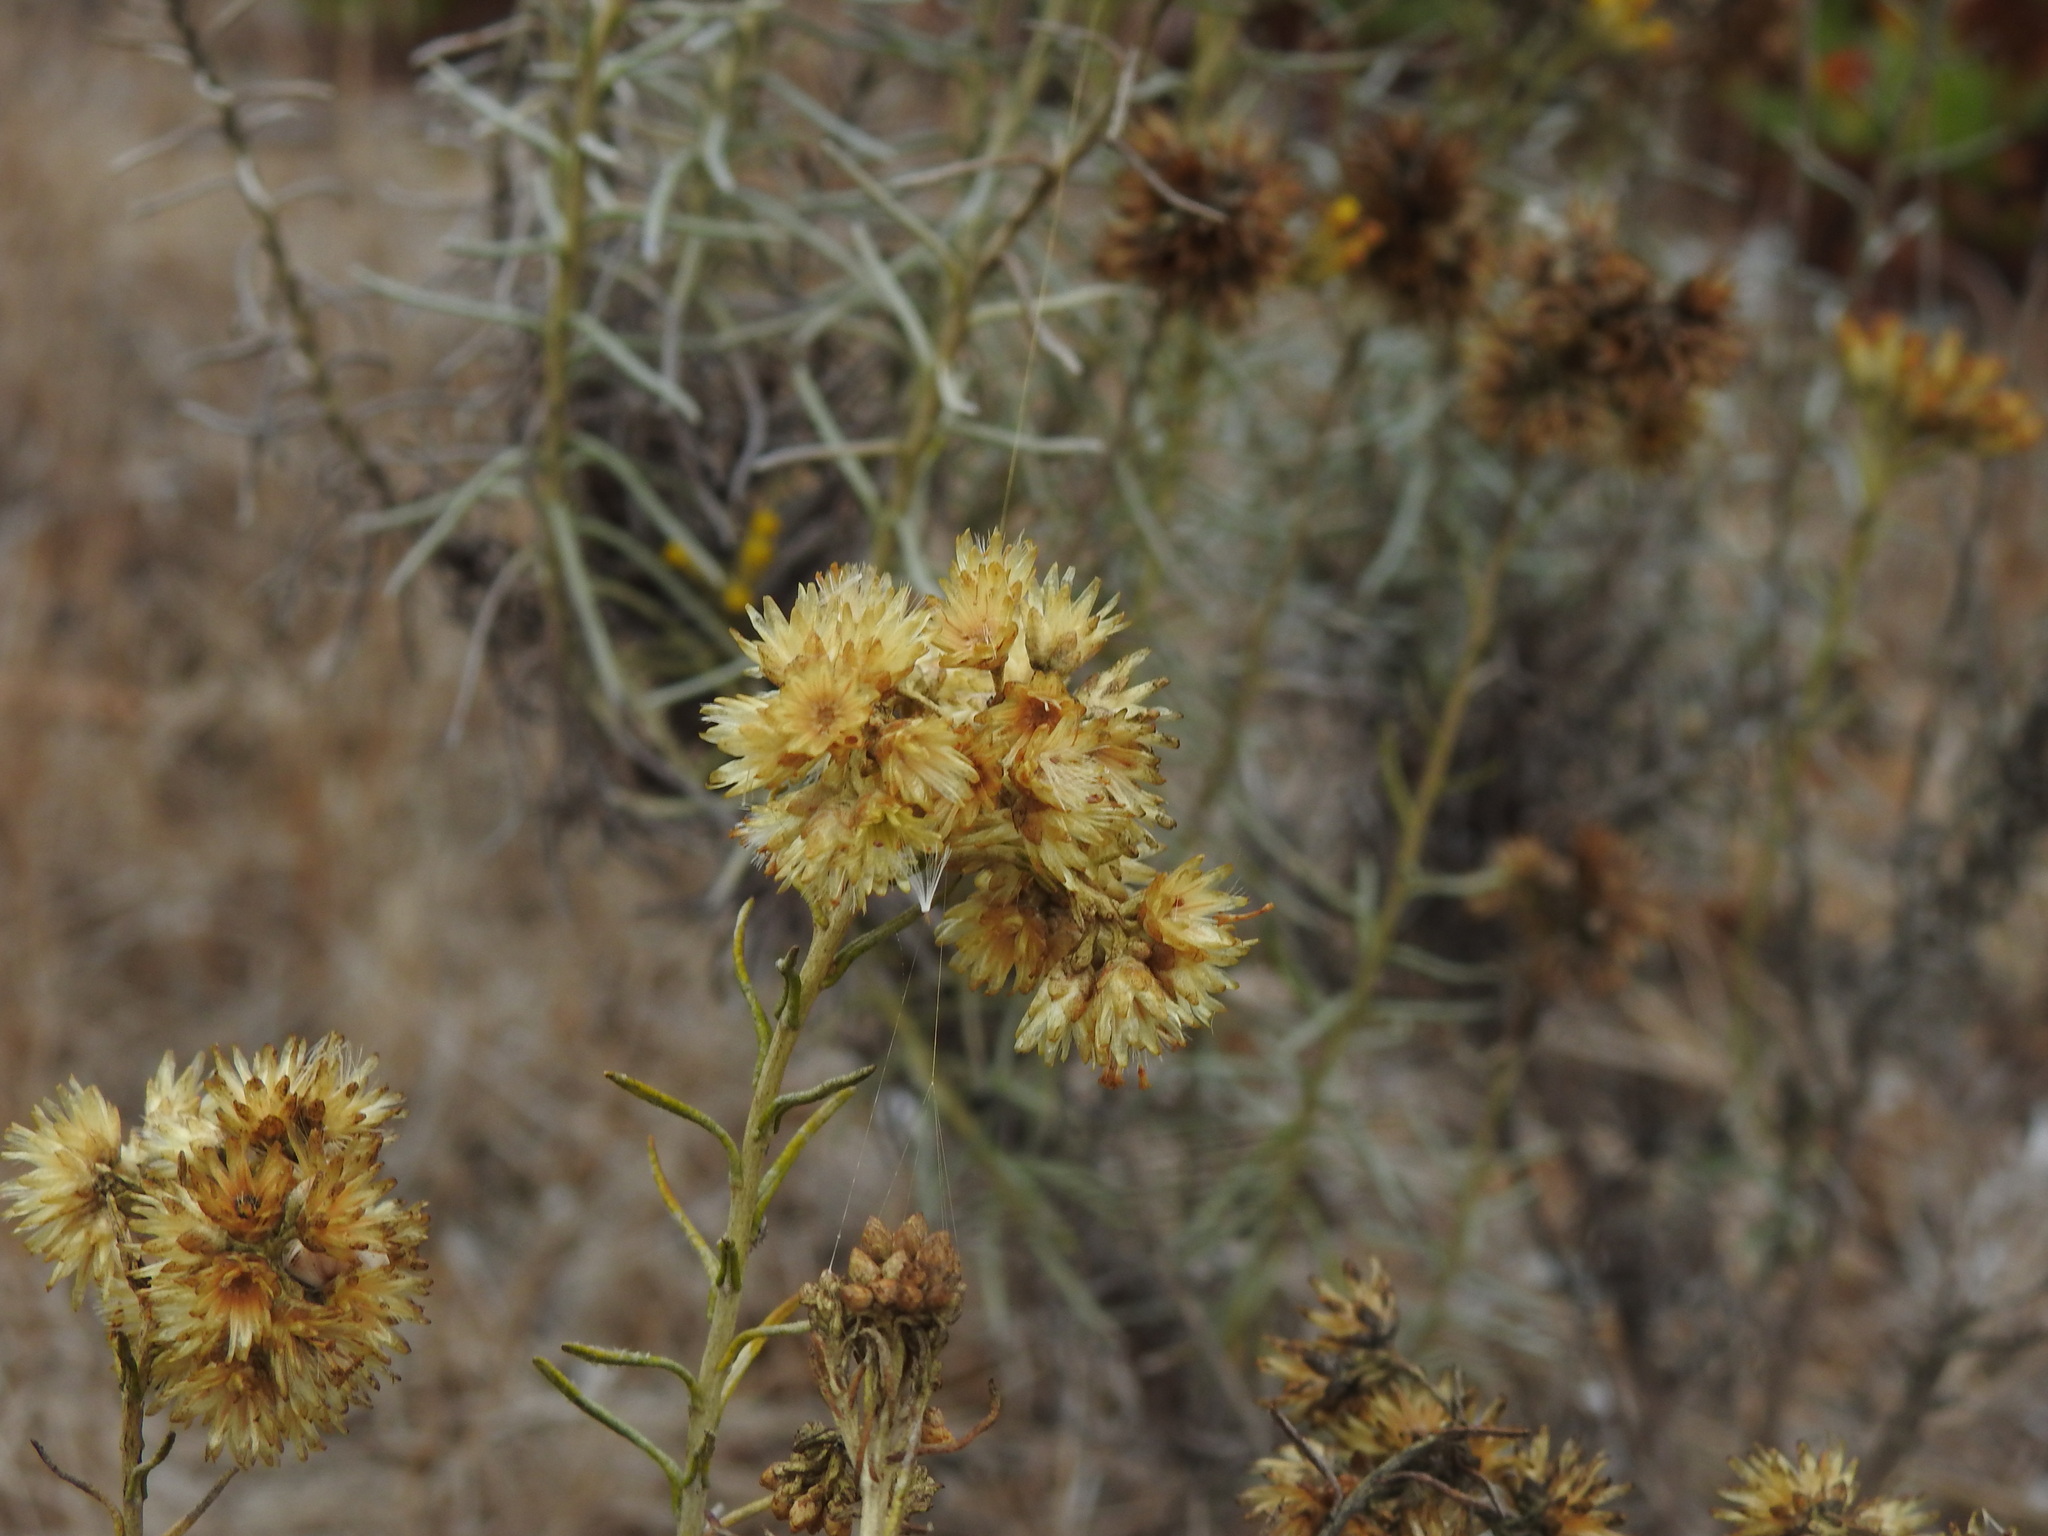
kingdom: Plantae
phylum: Tracheophyta
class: Magnoliopsida
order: Asterales
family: Asteraceae
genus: Helichrysum
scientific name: Helichrysum serotinum
